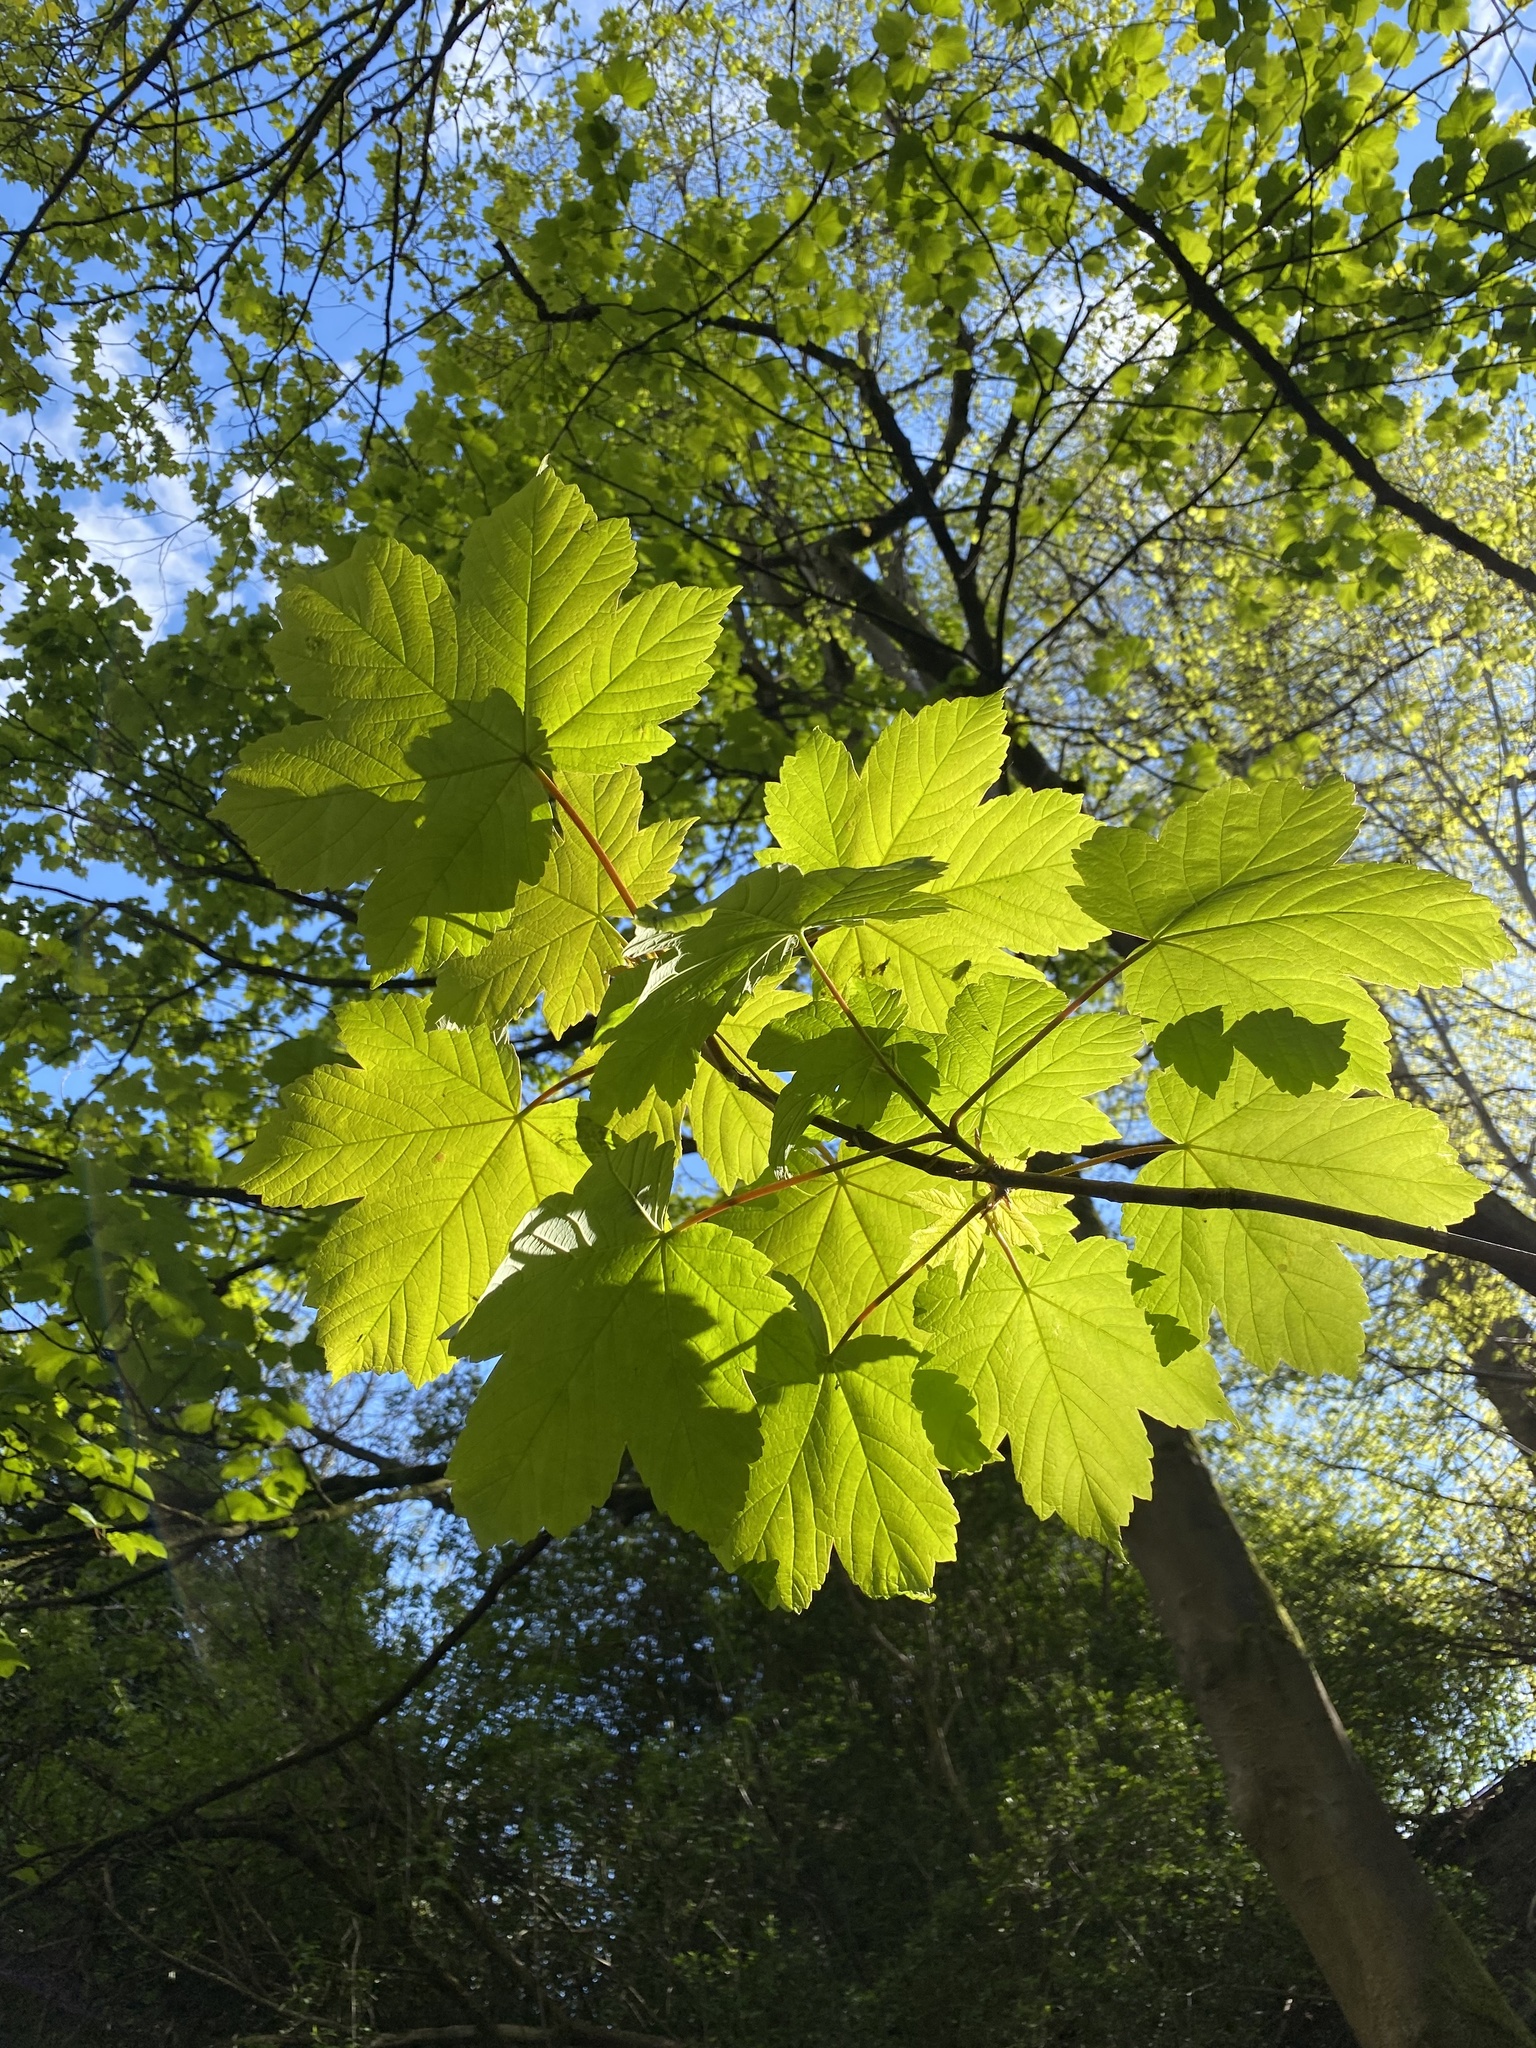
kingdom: Plantae
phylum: Tracheophyta
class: Magnoliopsida
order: Sapindales
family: Sapindaceae
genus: Acer
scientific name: Acer pseudoplatanus
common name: Sycamore
